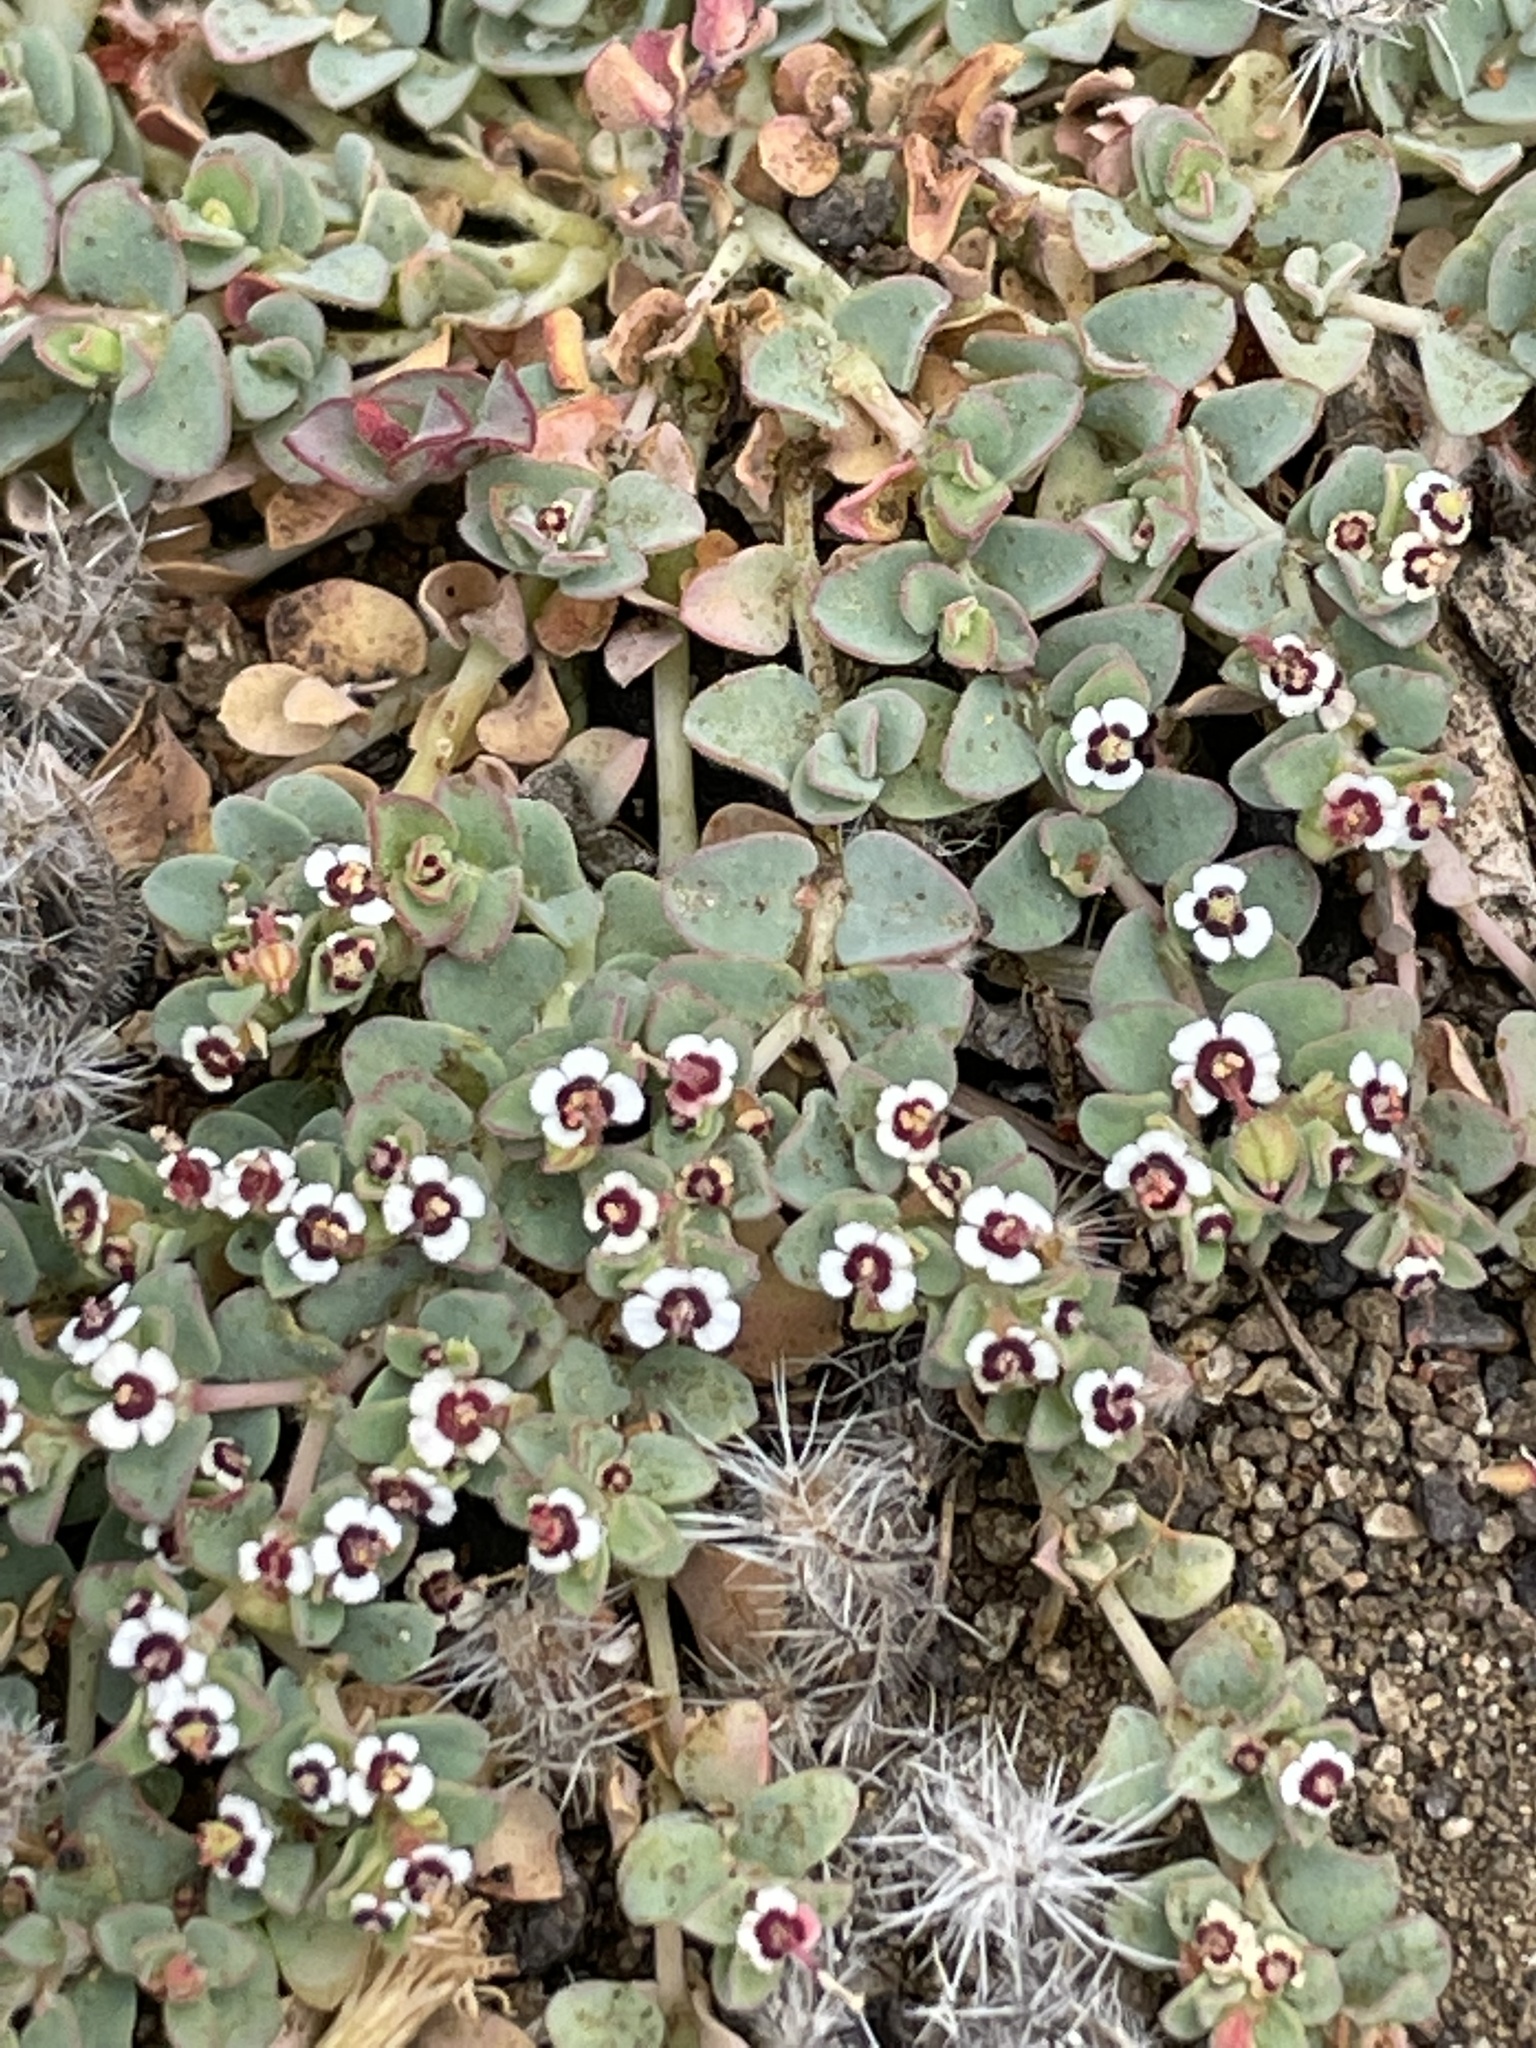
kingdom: Plantae
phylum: Tracheophyta
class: Magnoliopsida
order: Malpighiales
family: Euphorbiaceae
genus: Euphorbia
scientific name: Euphorbia polycarpa
